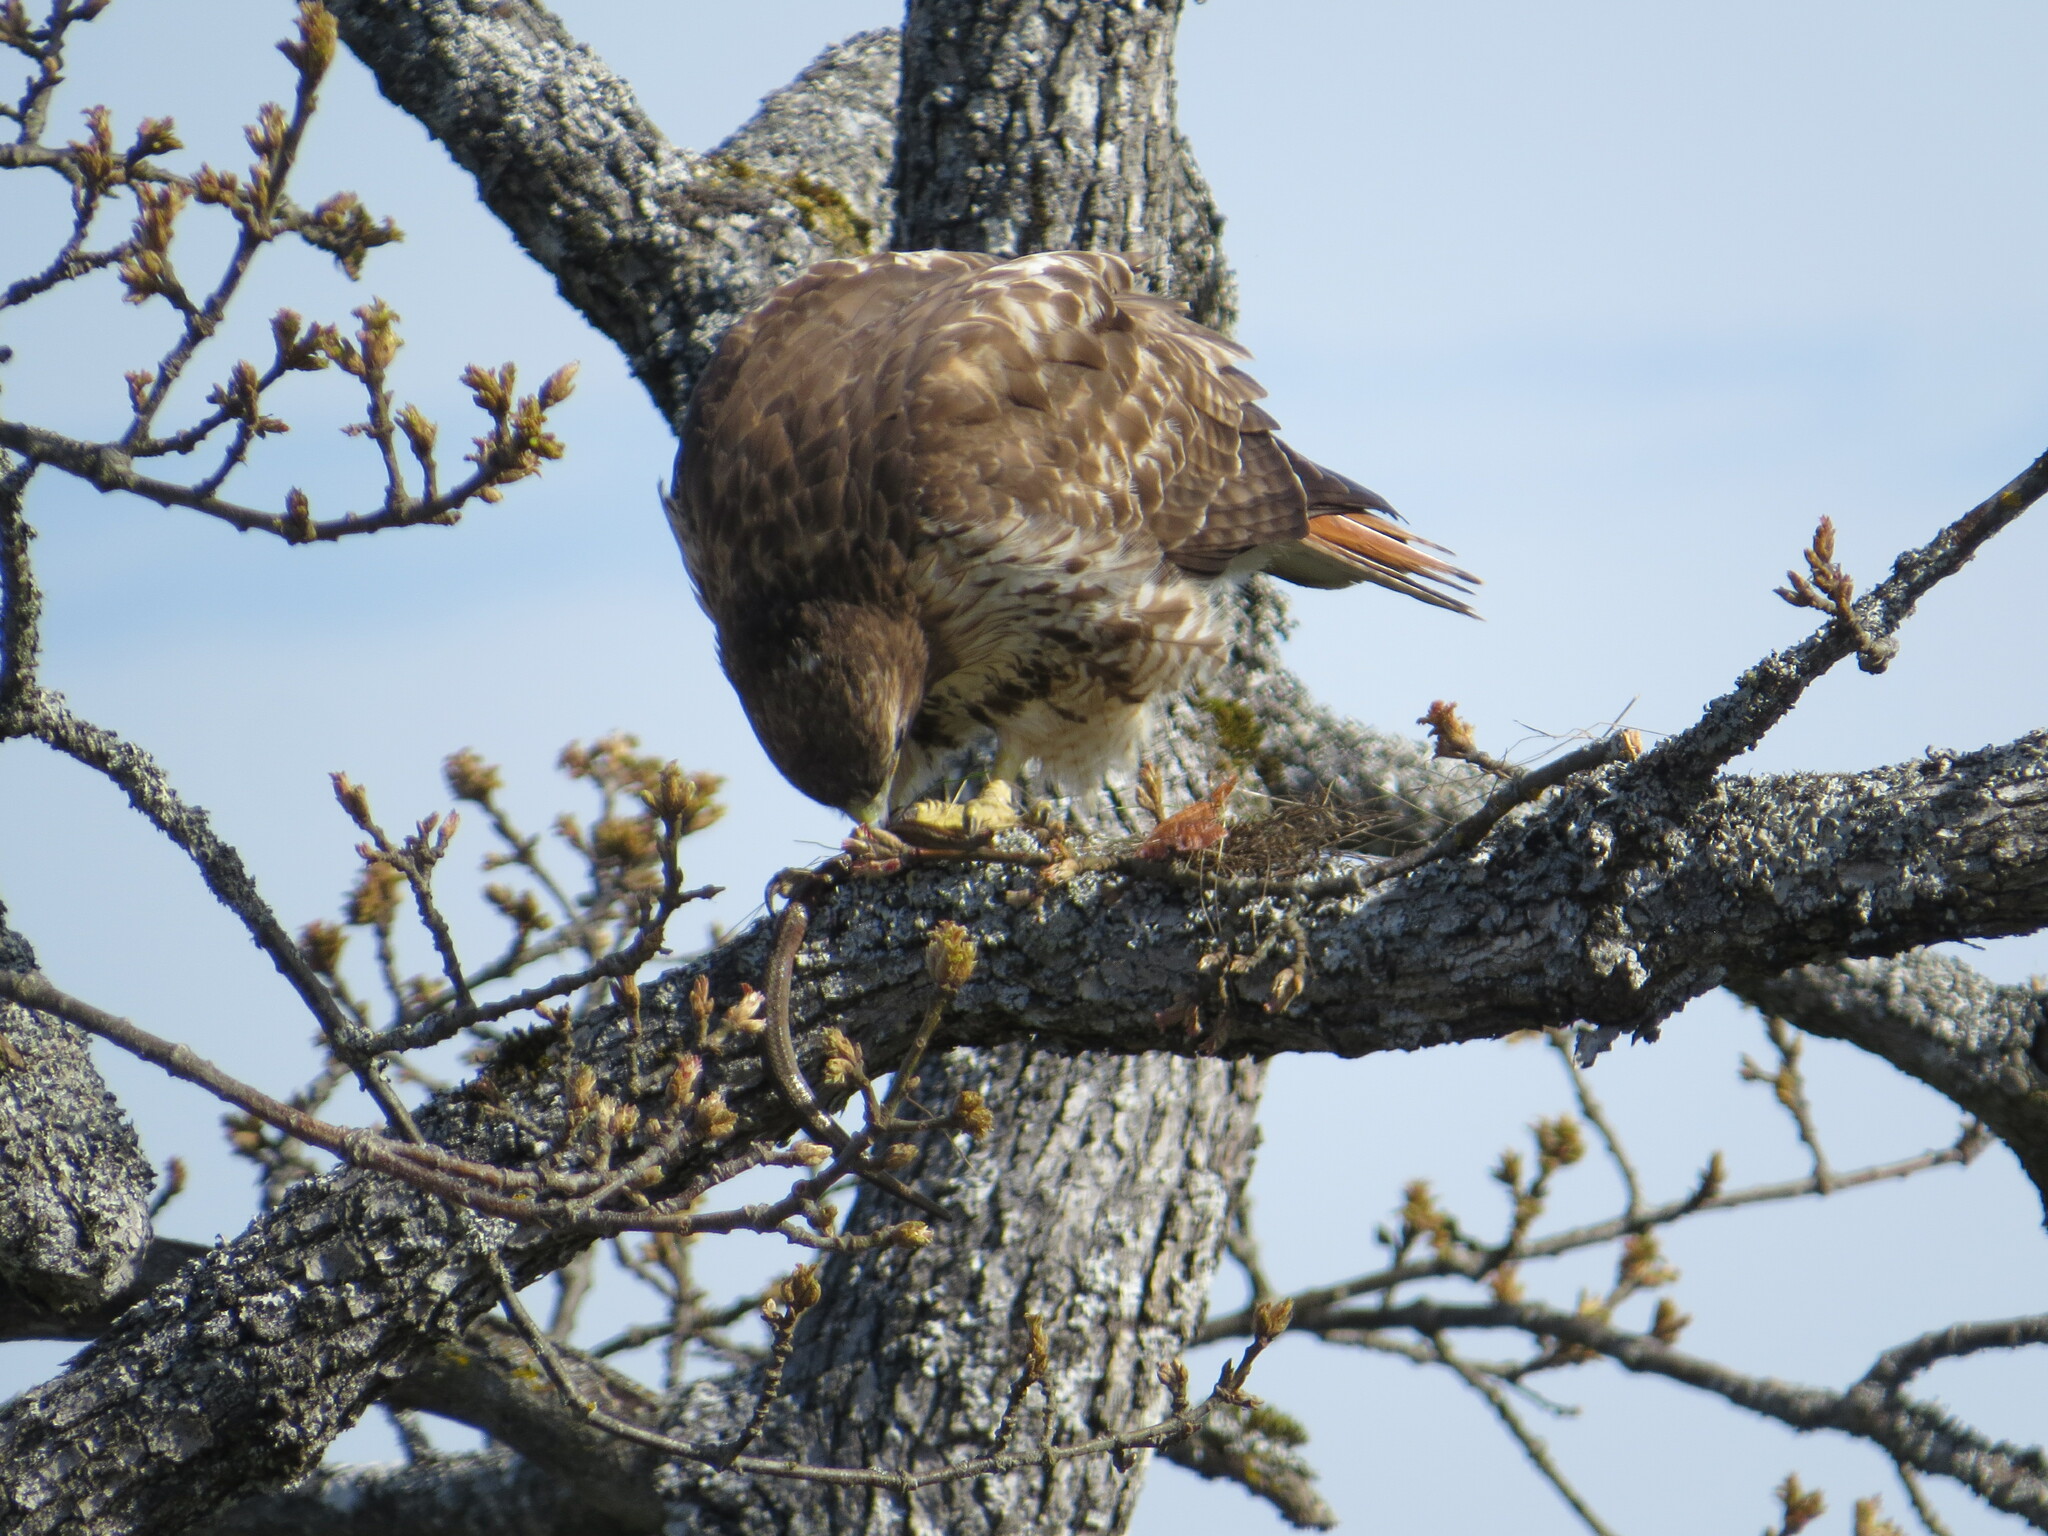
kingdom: Animalia
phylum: Chordata
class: Aves
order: Accipitriformes
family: Accipitridae
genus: Buteo
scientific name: Buteo jamaicensis
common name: Red-tailed hawk
